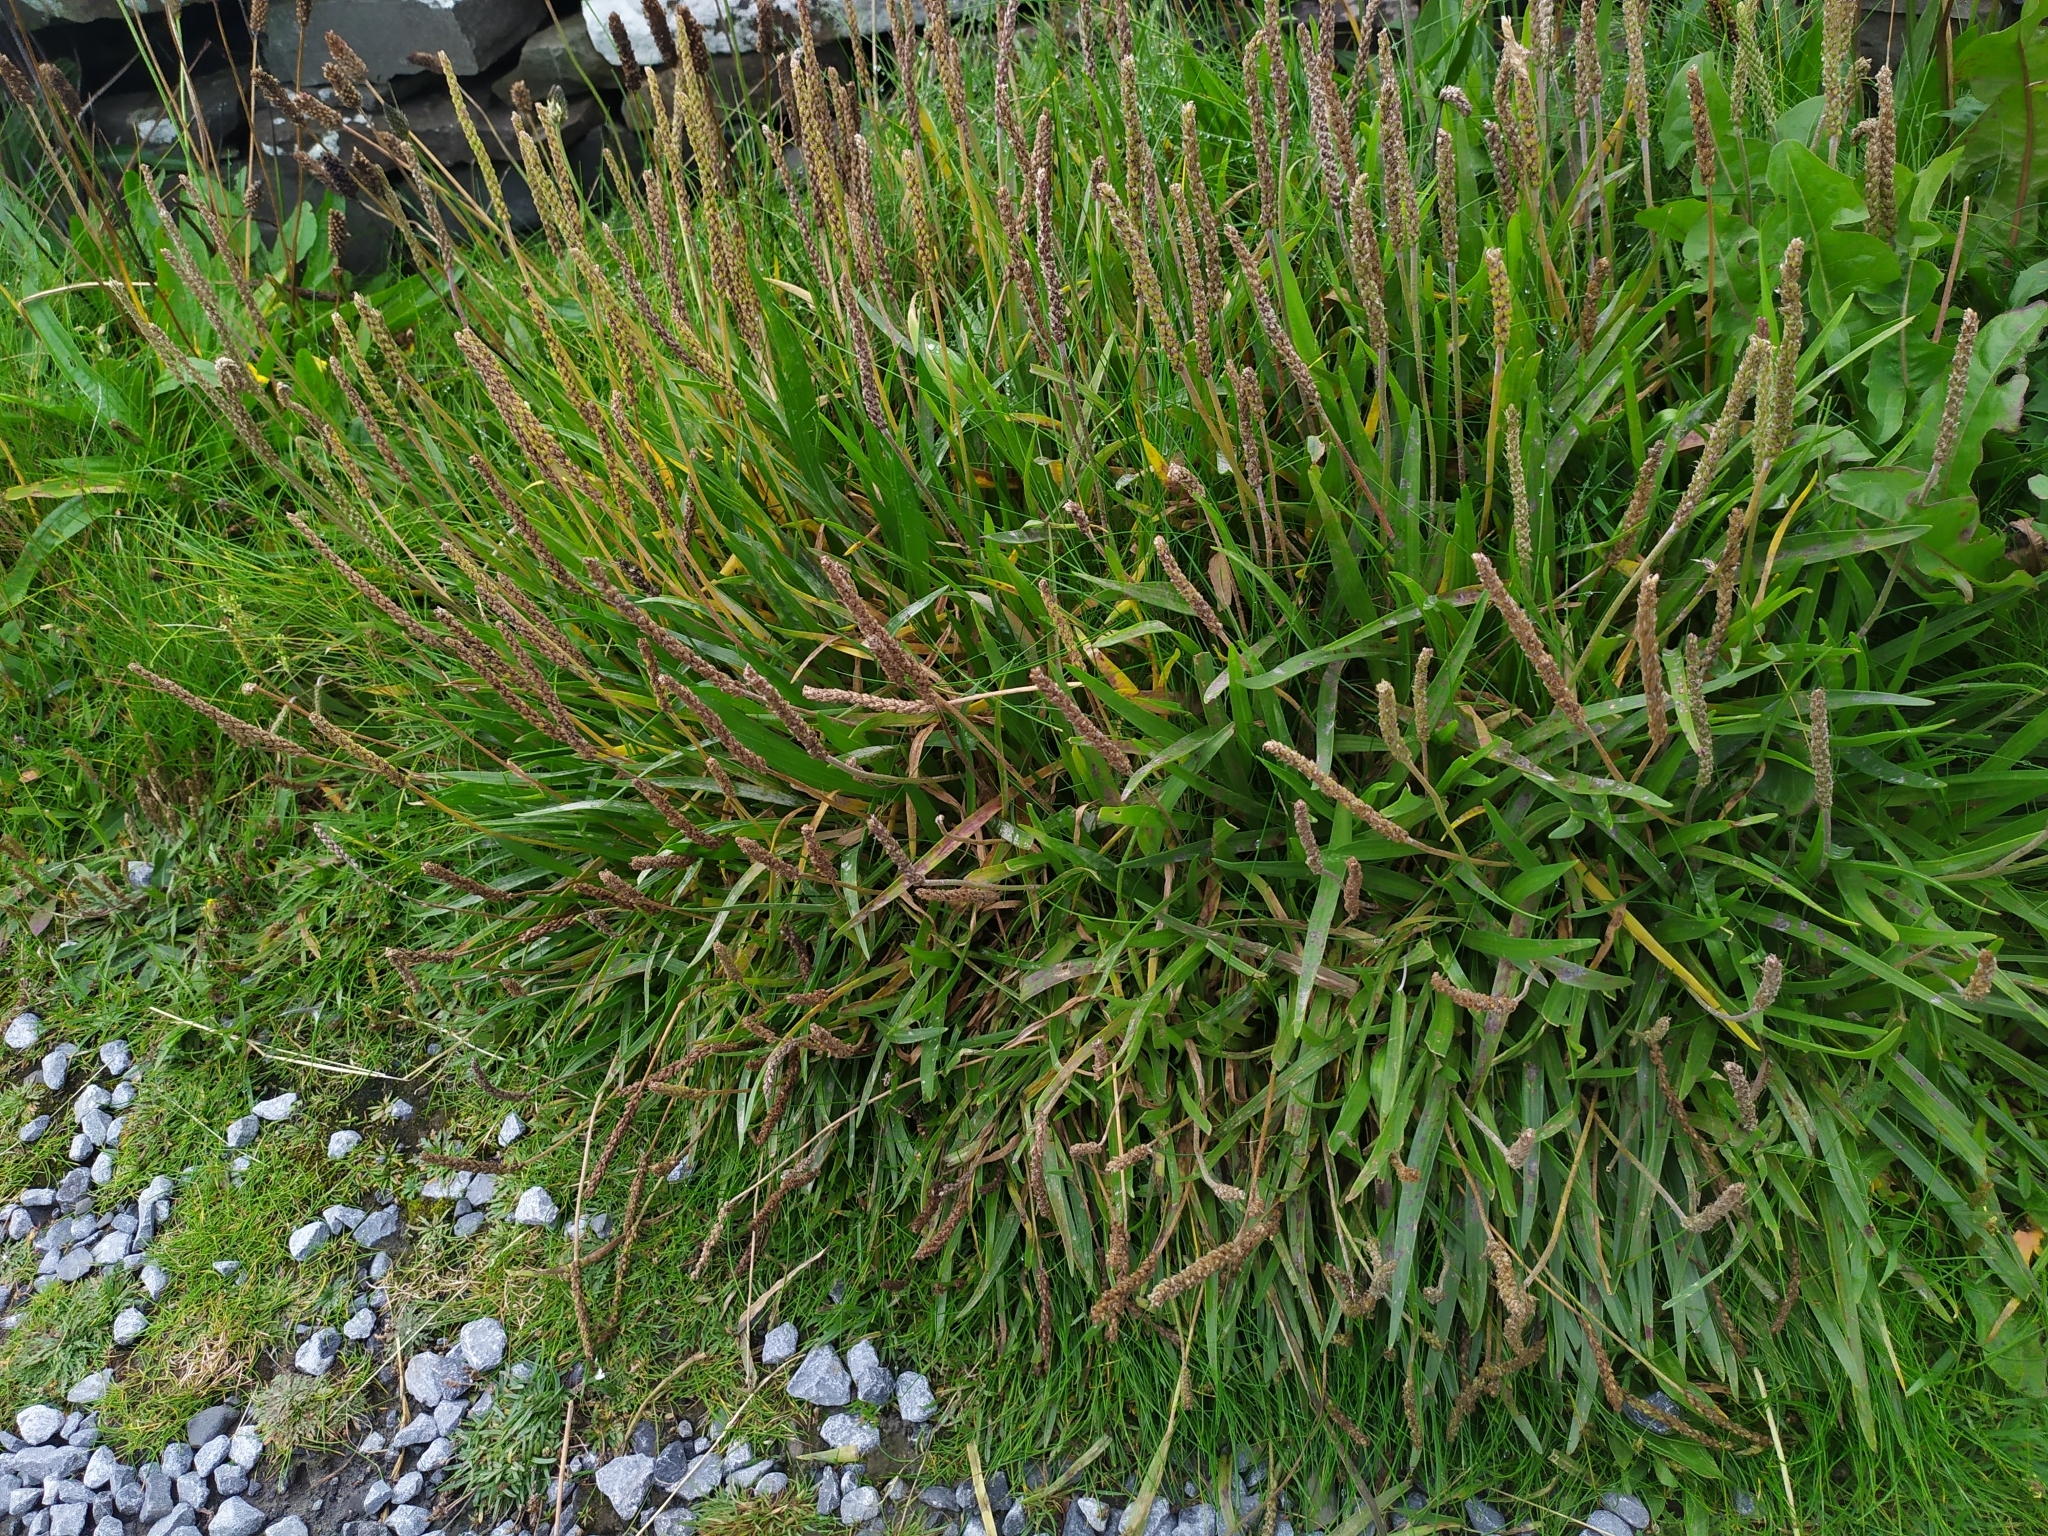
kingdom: Plantae
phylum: Tracheophyta
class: Magnoliopsida
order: Lamiales
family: Plantaginaceae
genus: Plantago
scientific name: Plantago maritima
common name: Sea plantain
